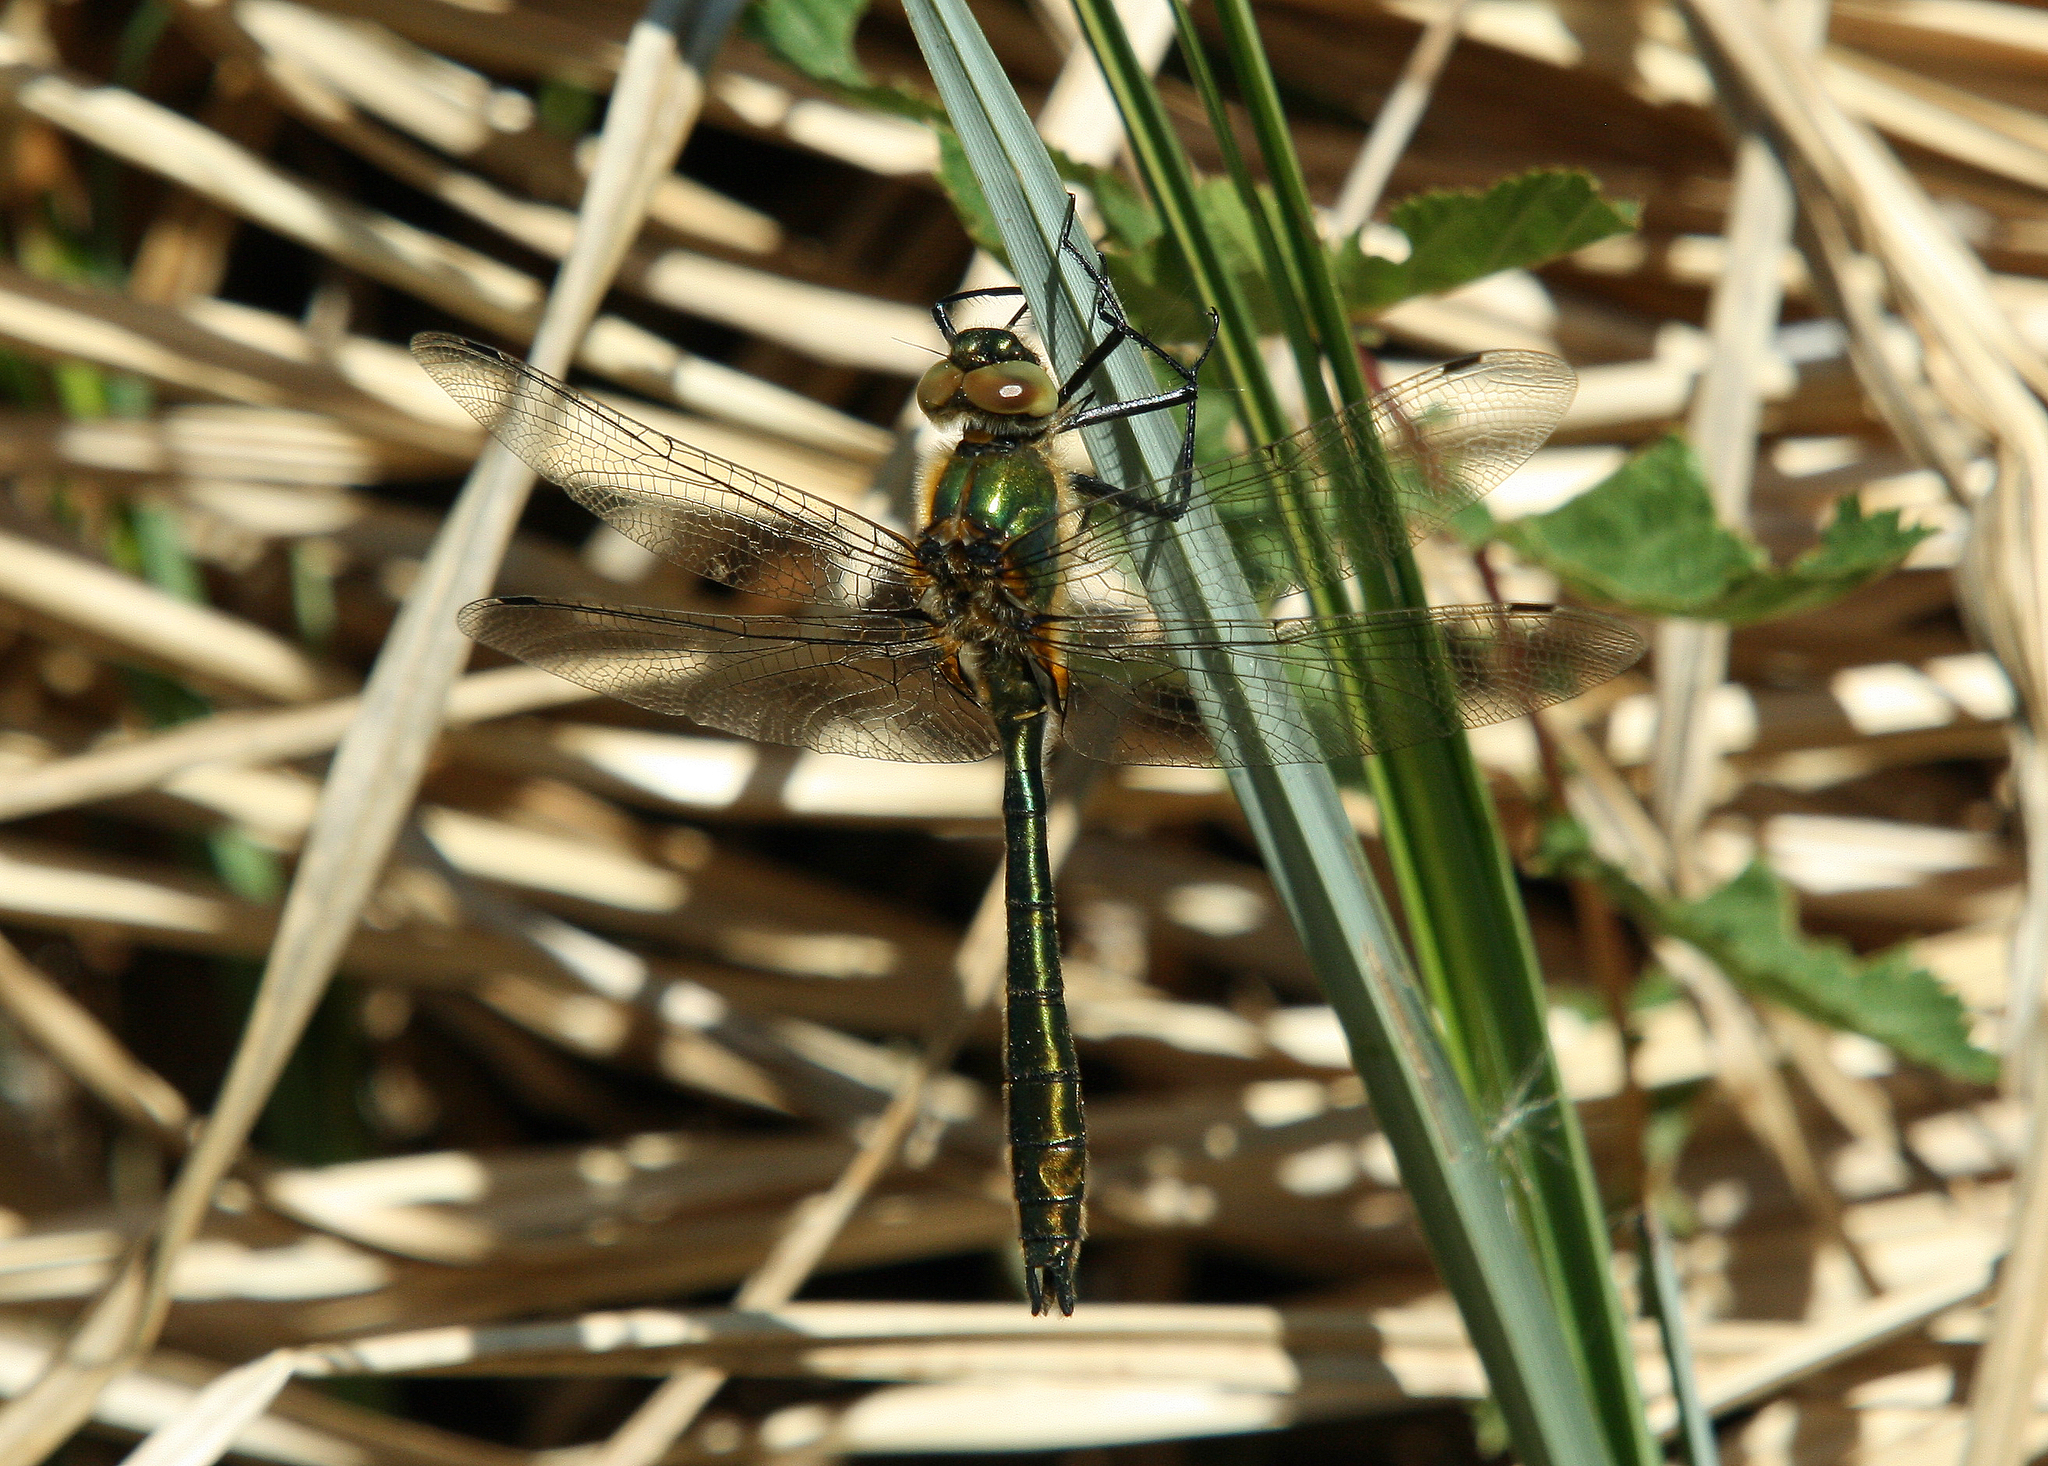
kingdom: Animalia
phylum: Arthropoda
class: Insecta
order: Odonata
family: Corduliidae
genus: Cordulia
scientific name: Cordulia aenea
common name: Downy emerald
